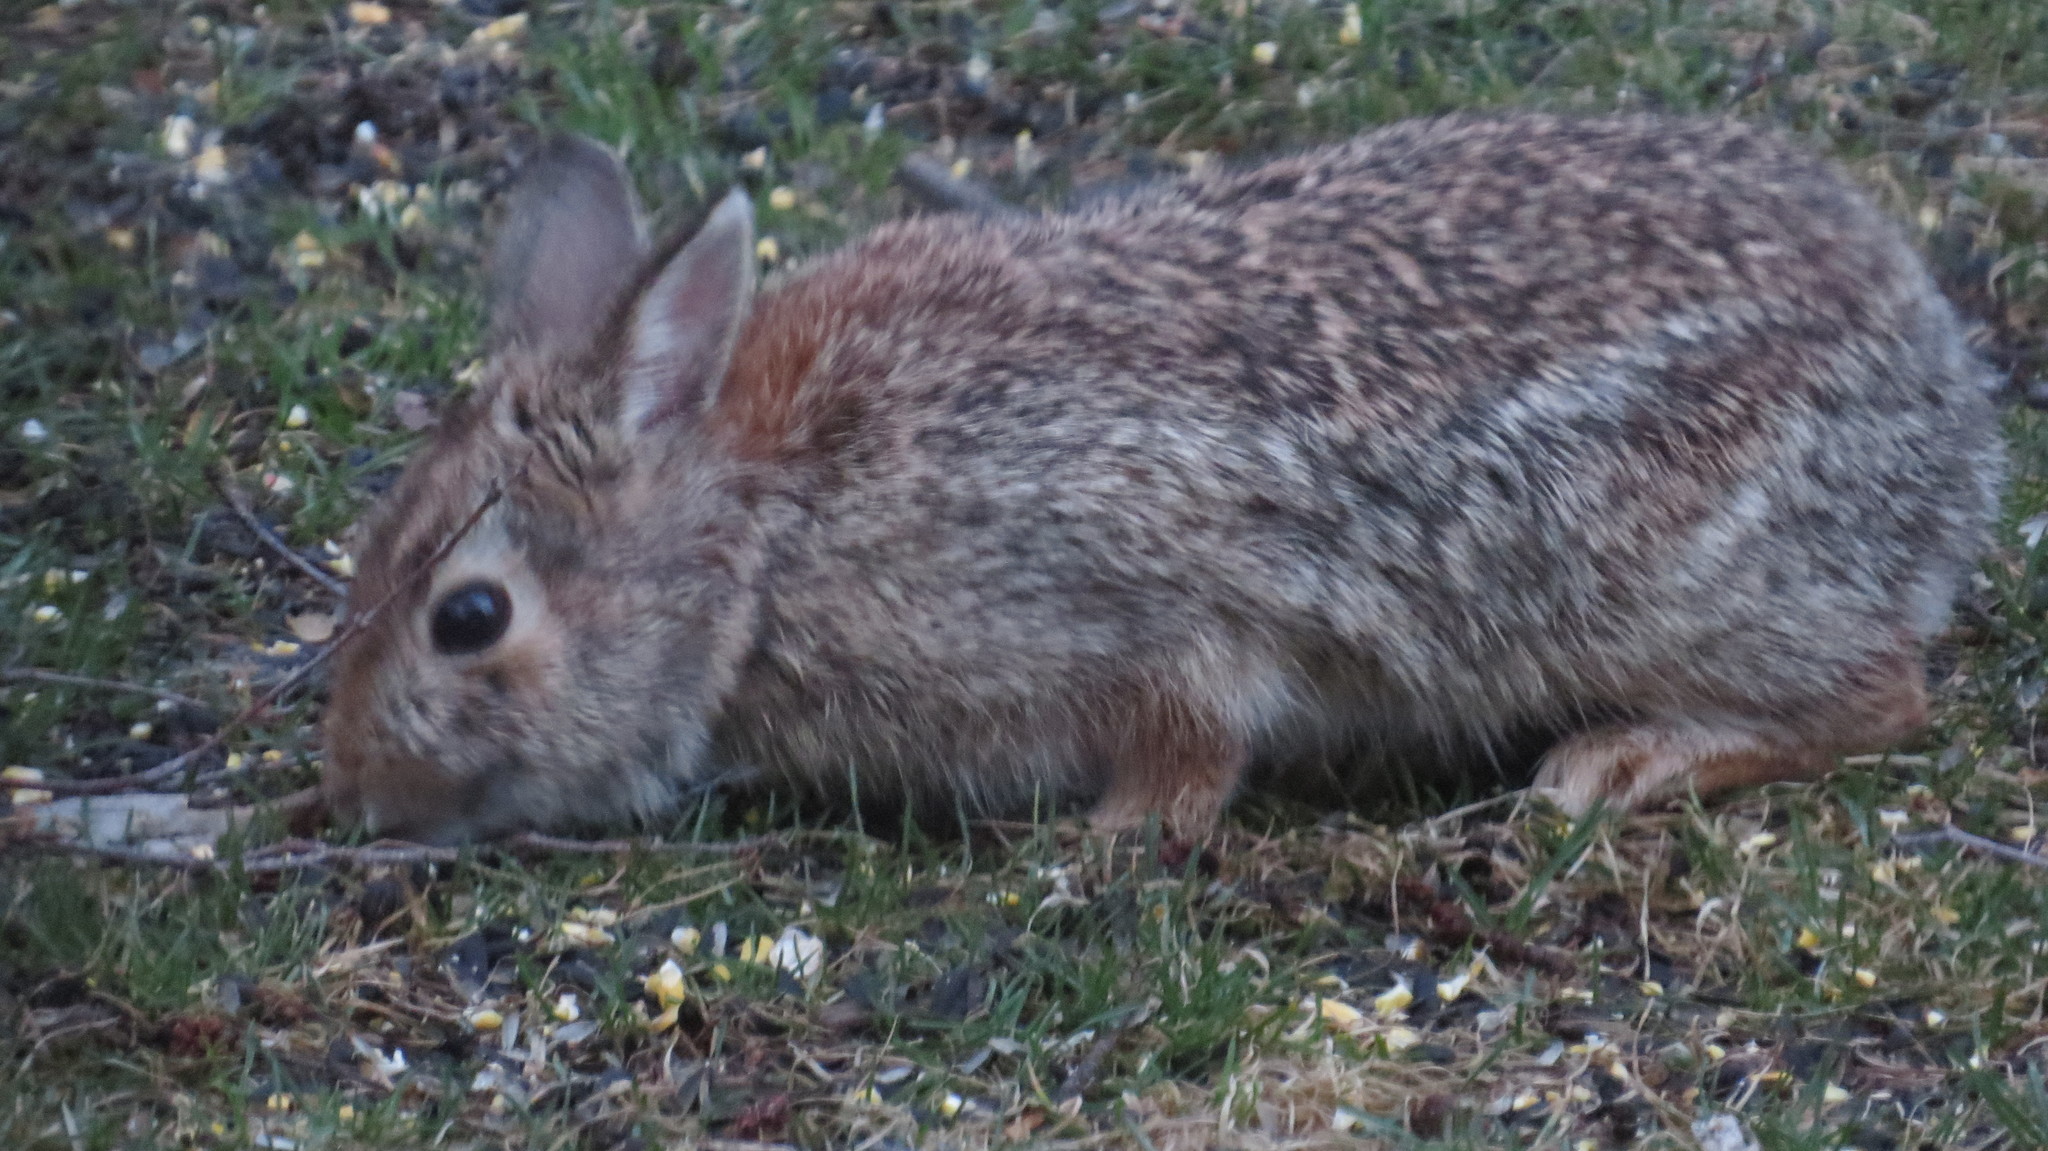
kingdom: Animalia
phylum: Chordata
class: Mammalia
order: Lagomorpha
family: Leporidae
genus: Sylvilagus
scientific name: Sylvilagus floridanus
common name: Eastern cottontail
